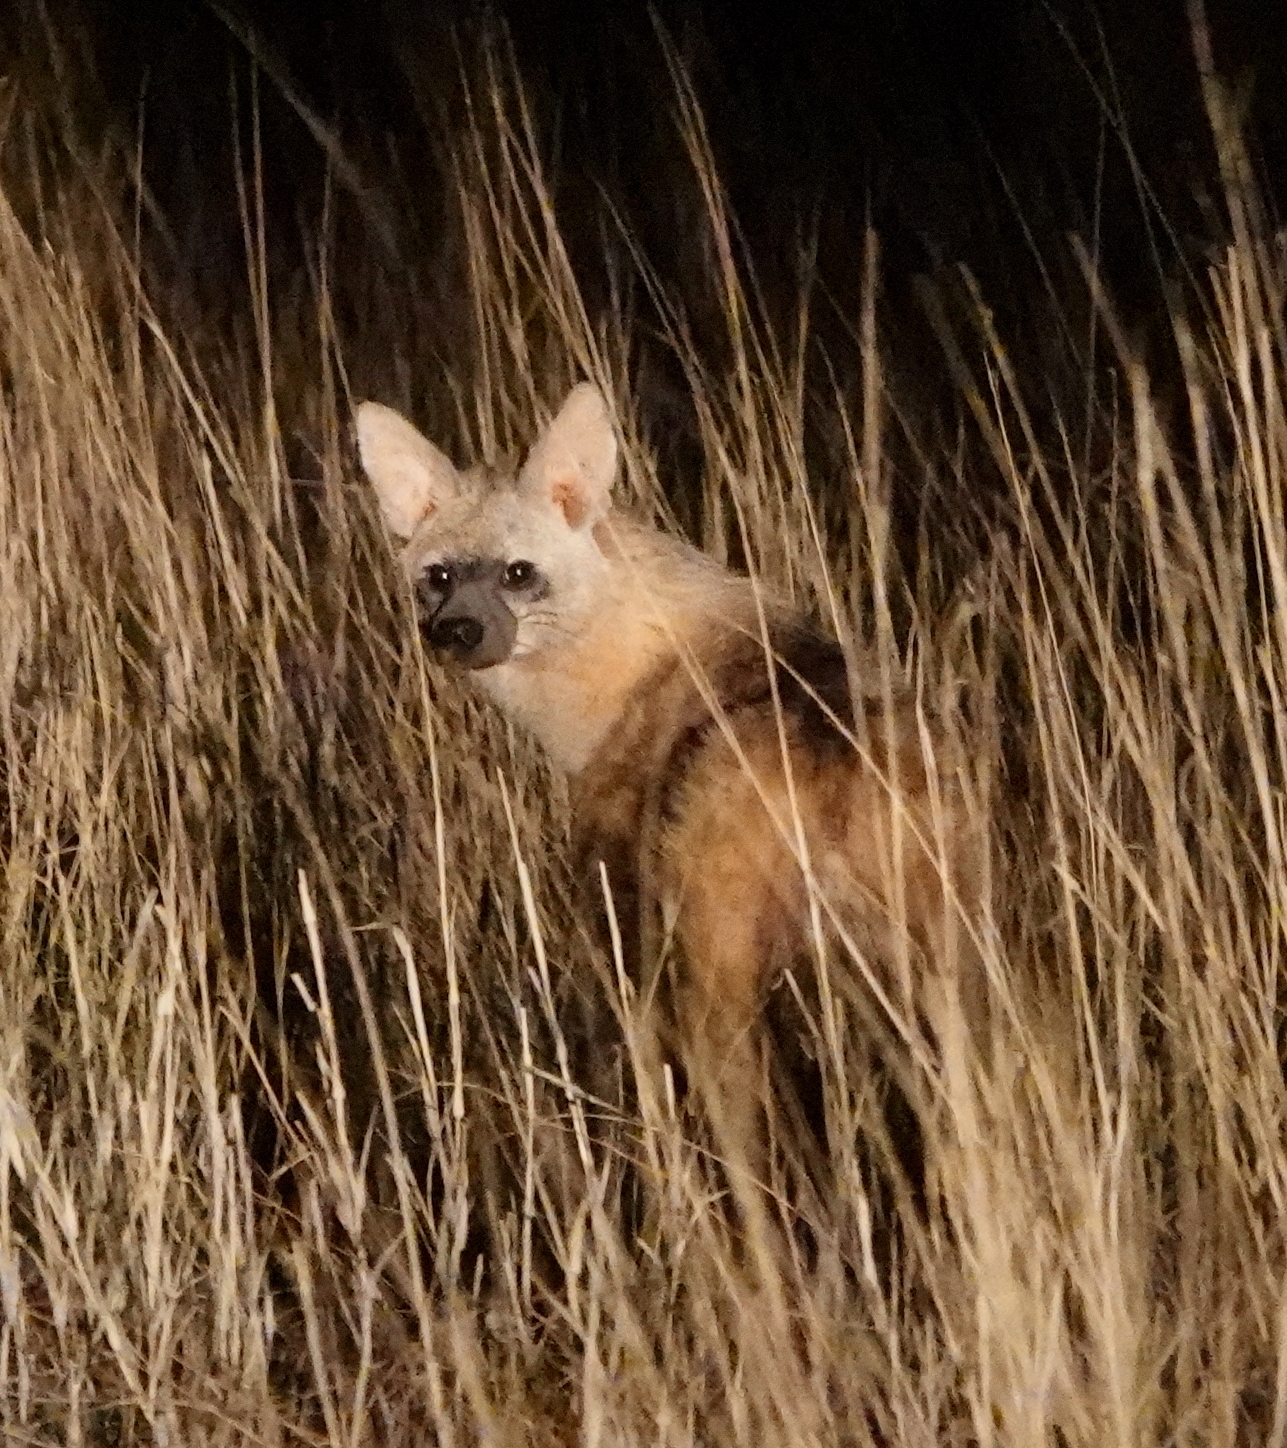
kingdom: Animalia
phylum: Chordata
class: Mammalia
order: Carnivora
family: Hyaenidae
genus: Proteles
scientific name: Proteles cristata
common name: Aardwolf
